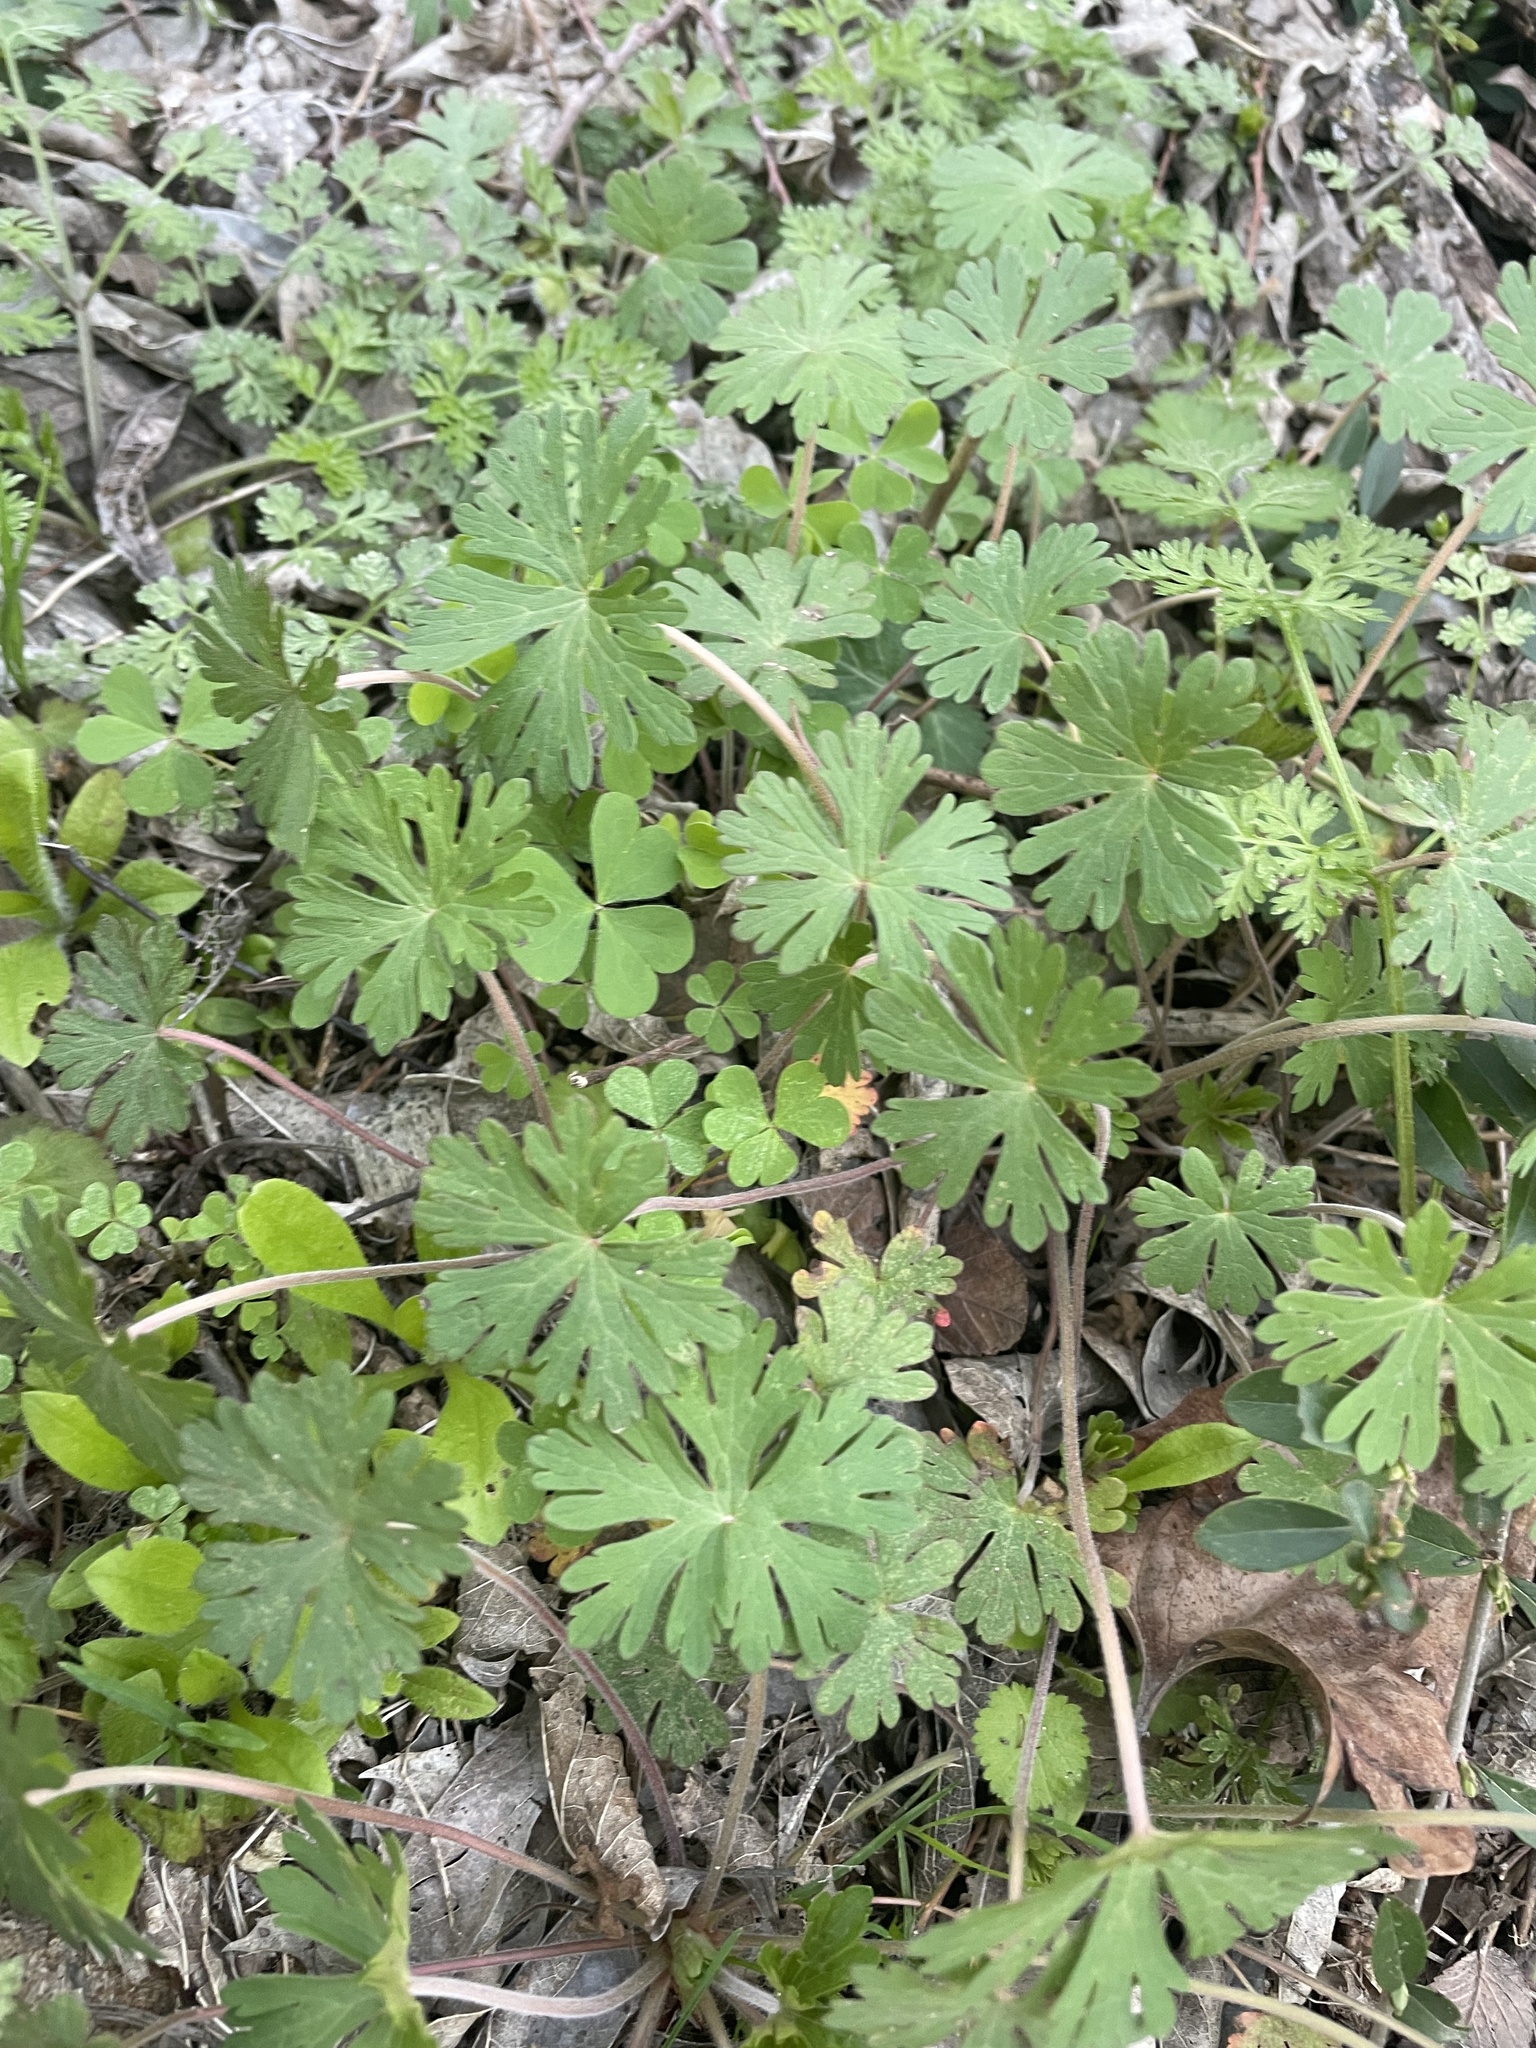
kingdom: Plantae
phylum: Tracheophyta
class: Magnoliopsida
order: Geraniales
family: Geraniaceae
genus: Geranium
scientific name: Geranium carolinianum
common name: Carolina crane's-bill
